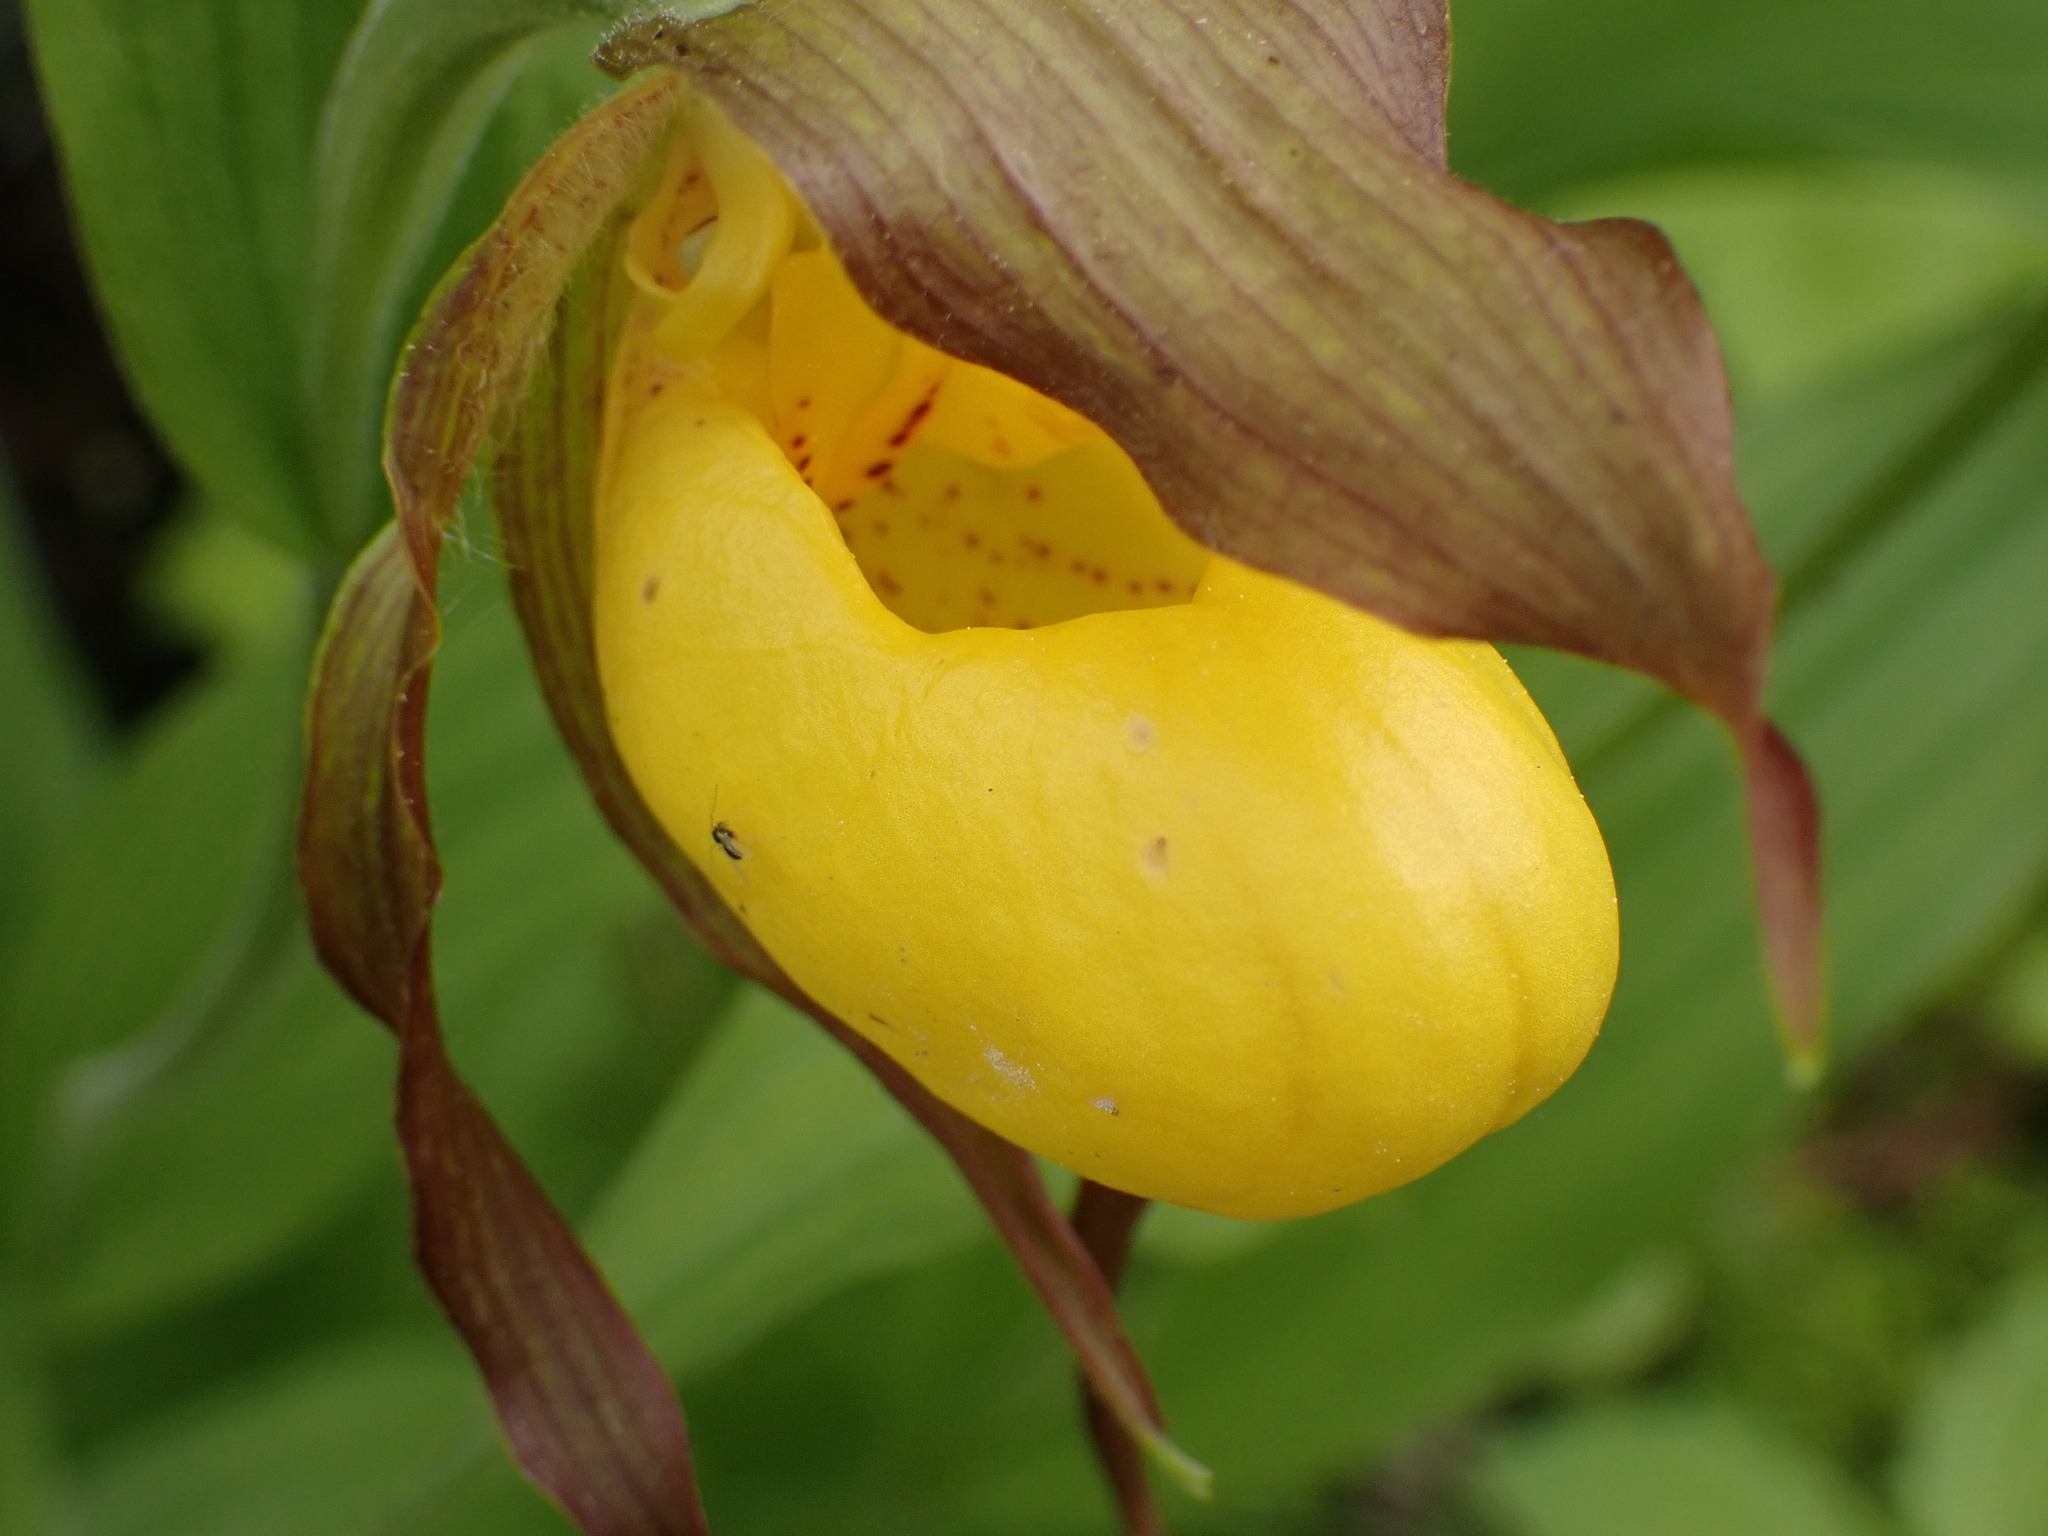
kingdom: Plantae
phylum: Tracheophyta
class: Liliopsida
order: Asparagales
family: Orchidaceae
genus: Cypripedium
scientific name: Cypripedium parviflorum
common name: American yellow lady's-slipper
